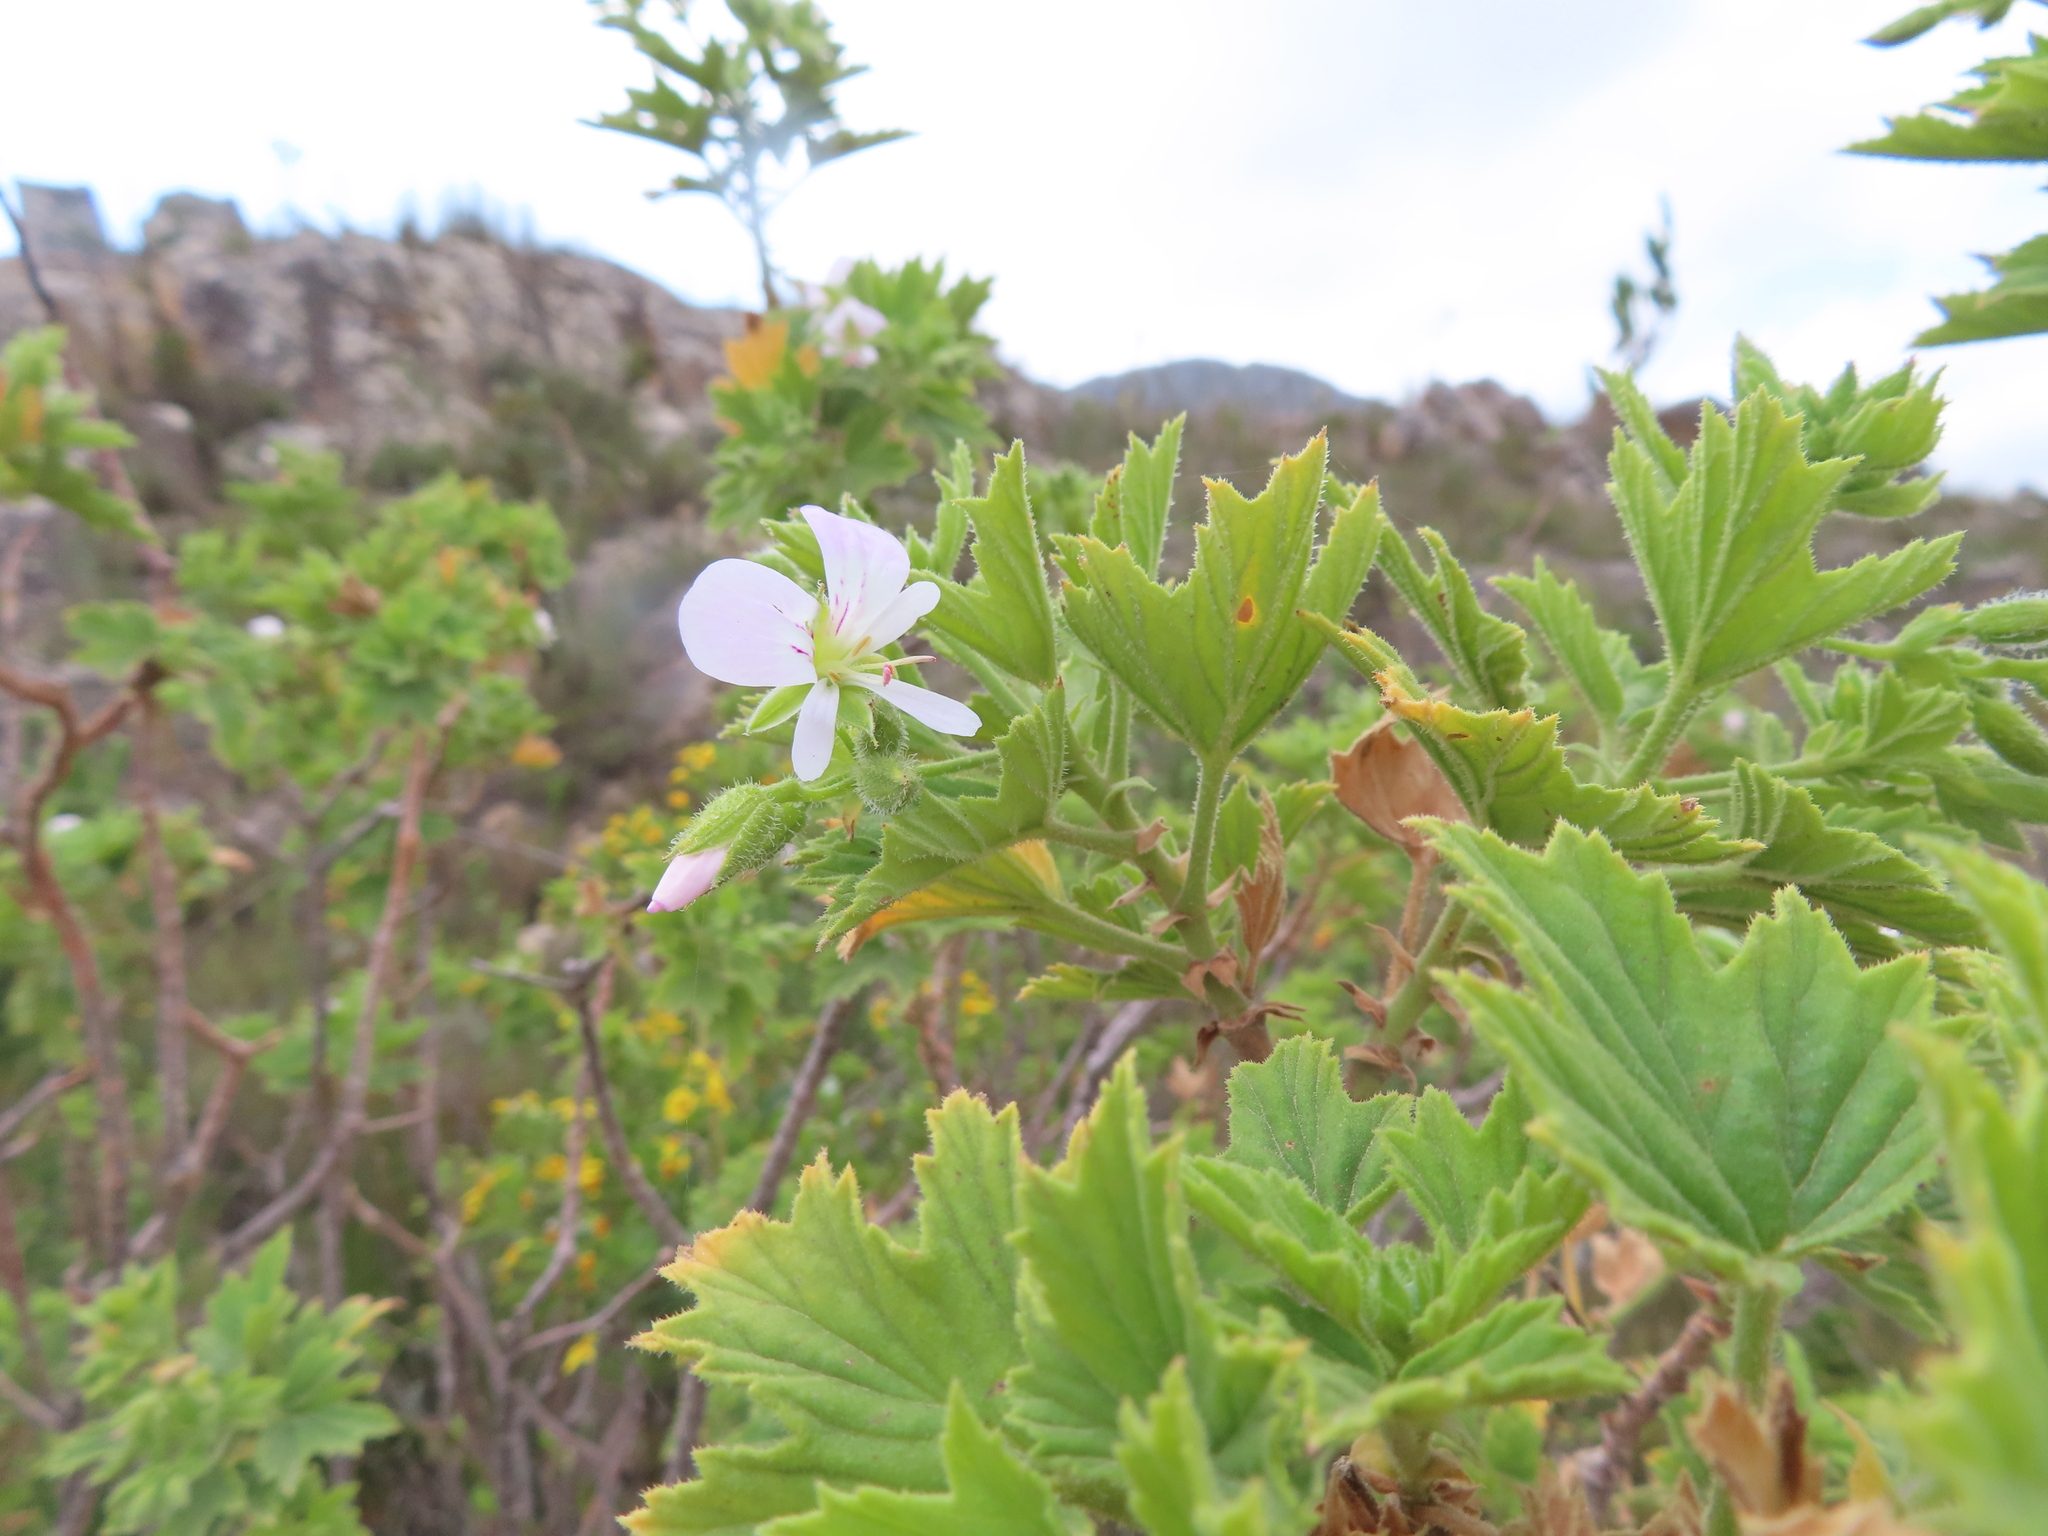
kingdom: Plantae
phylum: Tracheophyta
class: Magnoliopsida
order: Geraniales
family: Geraniaceae
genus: Pelargonium
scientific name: Pelargonium scabrum
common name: Apricot geranium
